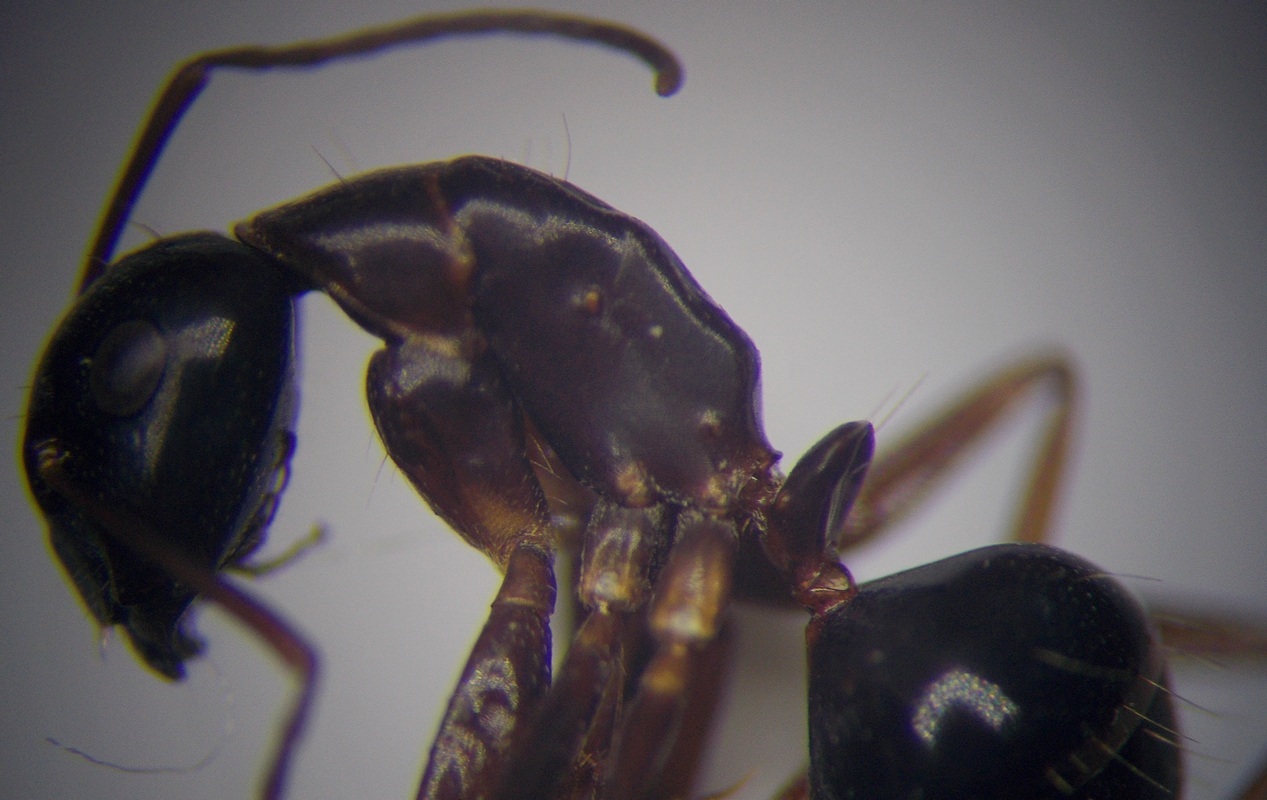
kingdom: Animalia
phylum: Arthropoda
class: Insecta
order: Hymenoptera
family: Formicidae
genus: Camponotus
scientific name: Camponotus aethiops
